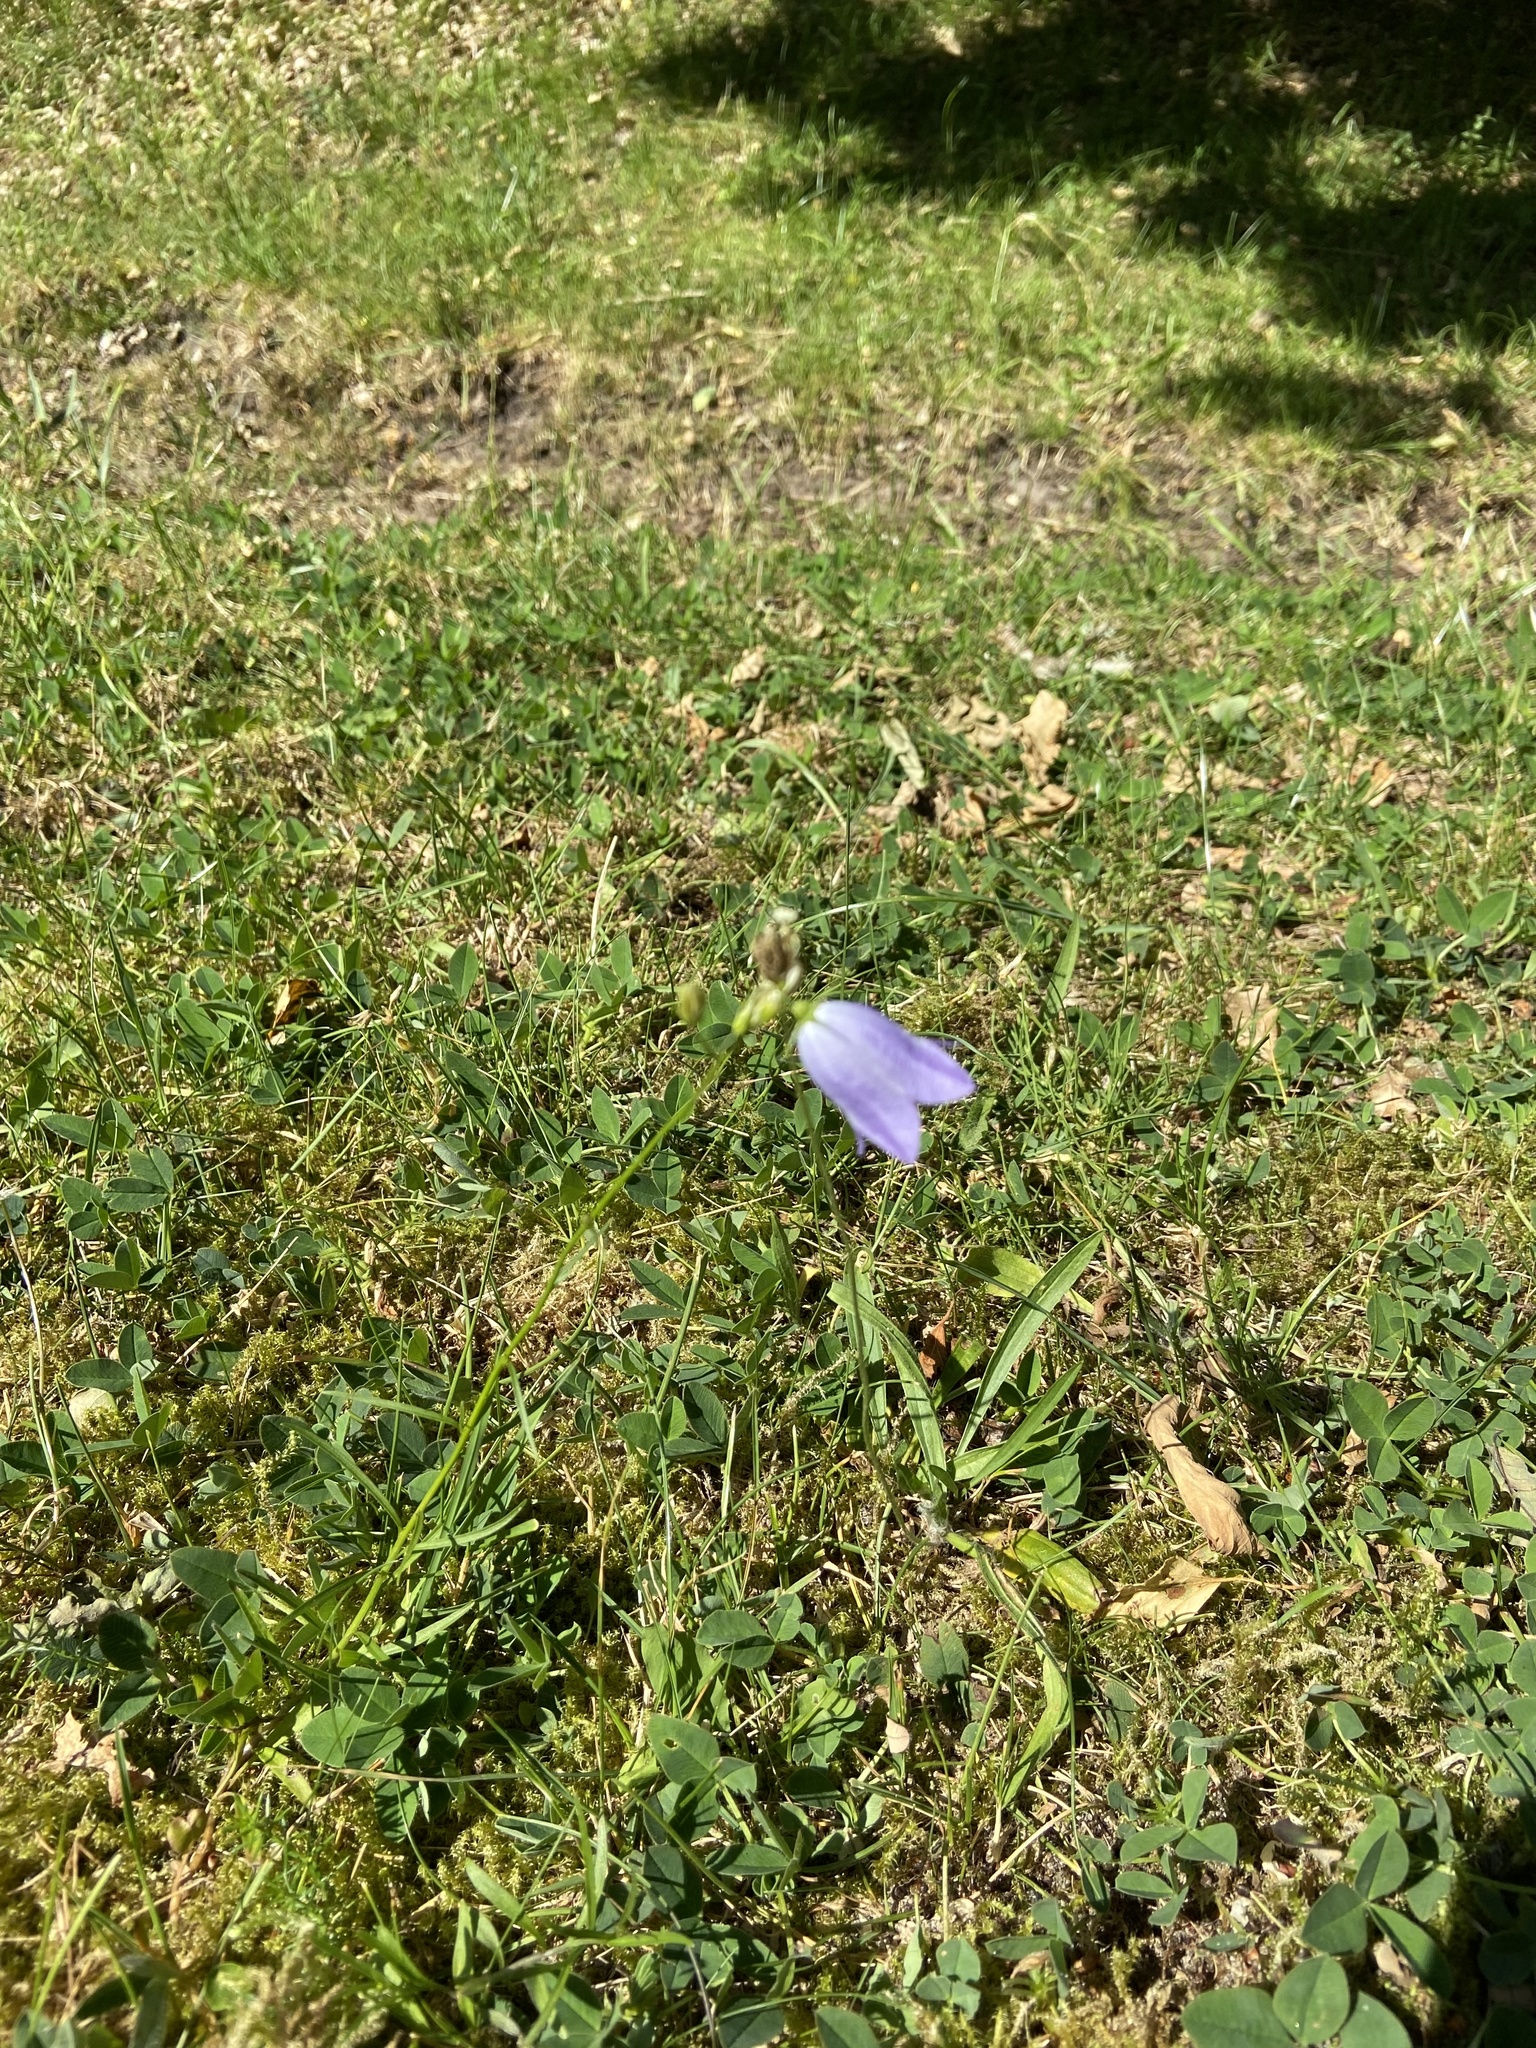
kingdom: Plantae
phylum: Tracheophyta
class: Magnoliopsida
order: Asterales
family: Campanulaceae
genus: Campanula
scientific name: Campanula rotundifolia
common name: Harebell
